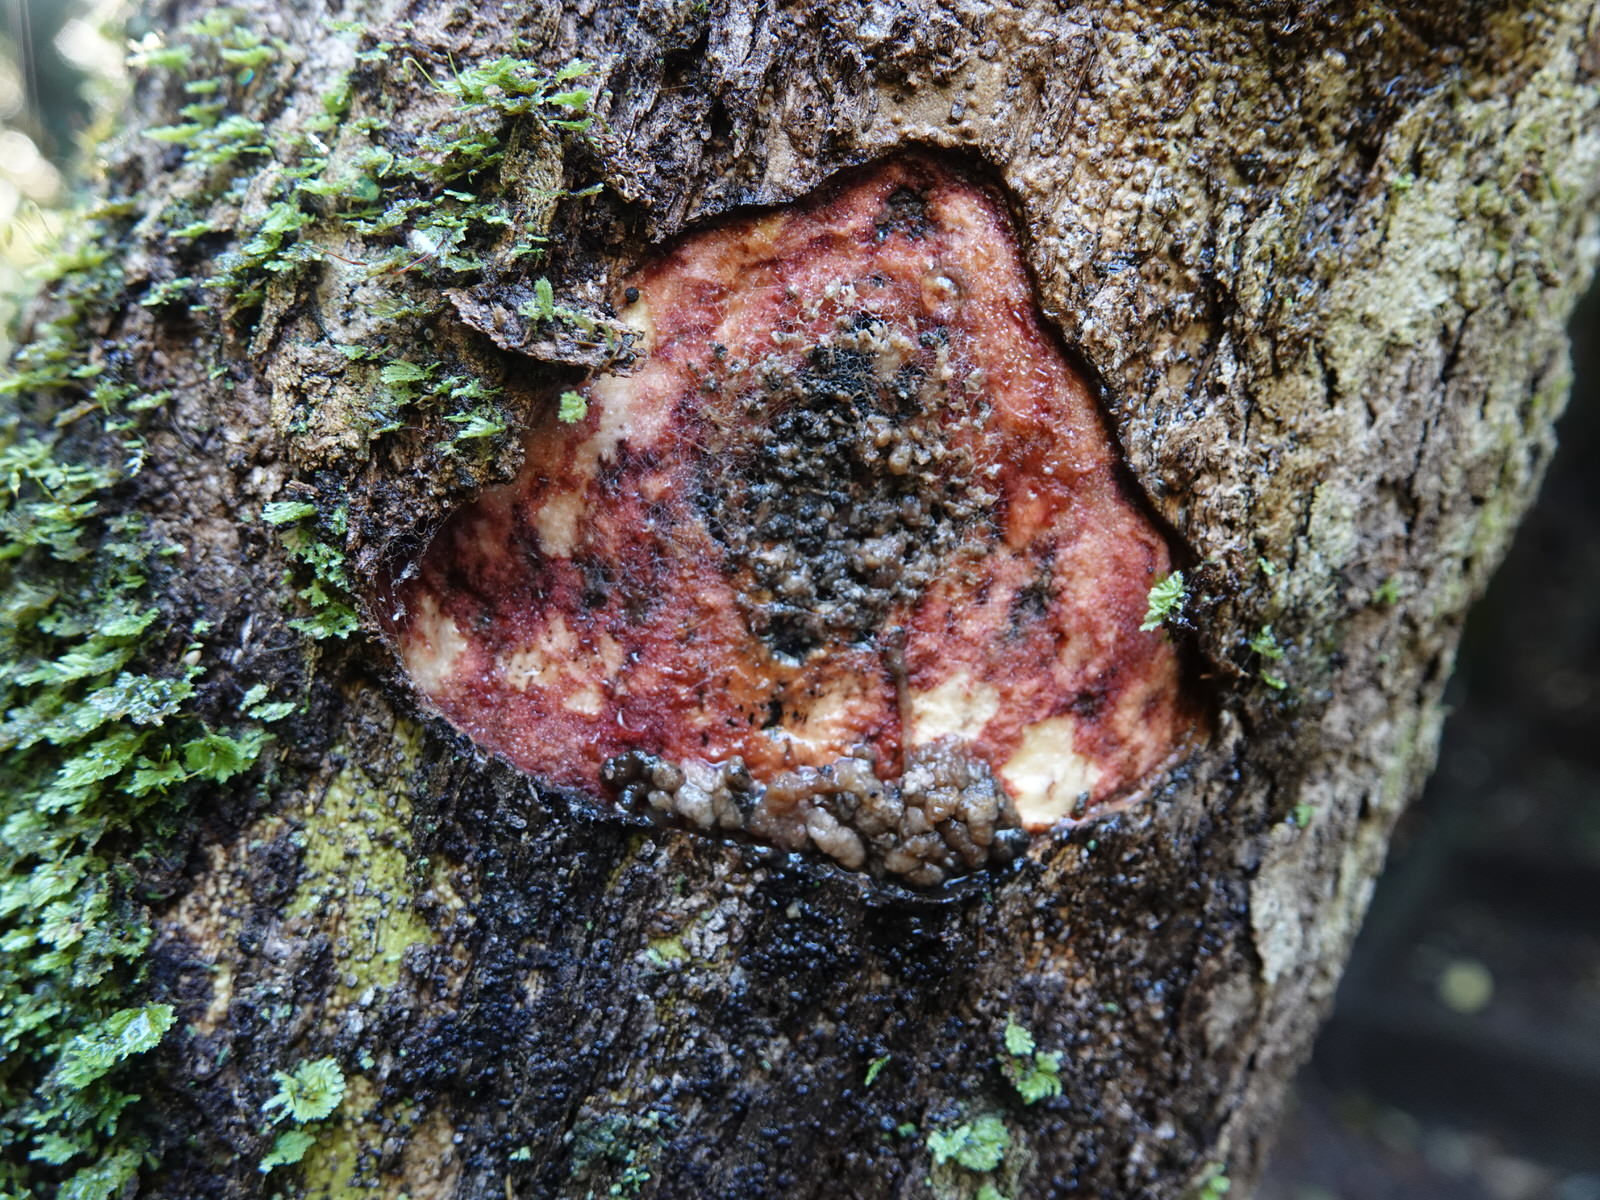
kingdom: Animalia
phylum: Arthropoda
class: Insecta
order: Lepidoptera
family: Hepialidae
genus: Aenetus
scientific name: Aenetus virescens
